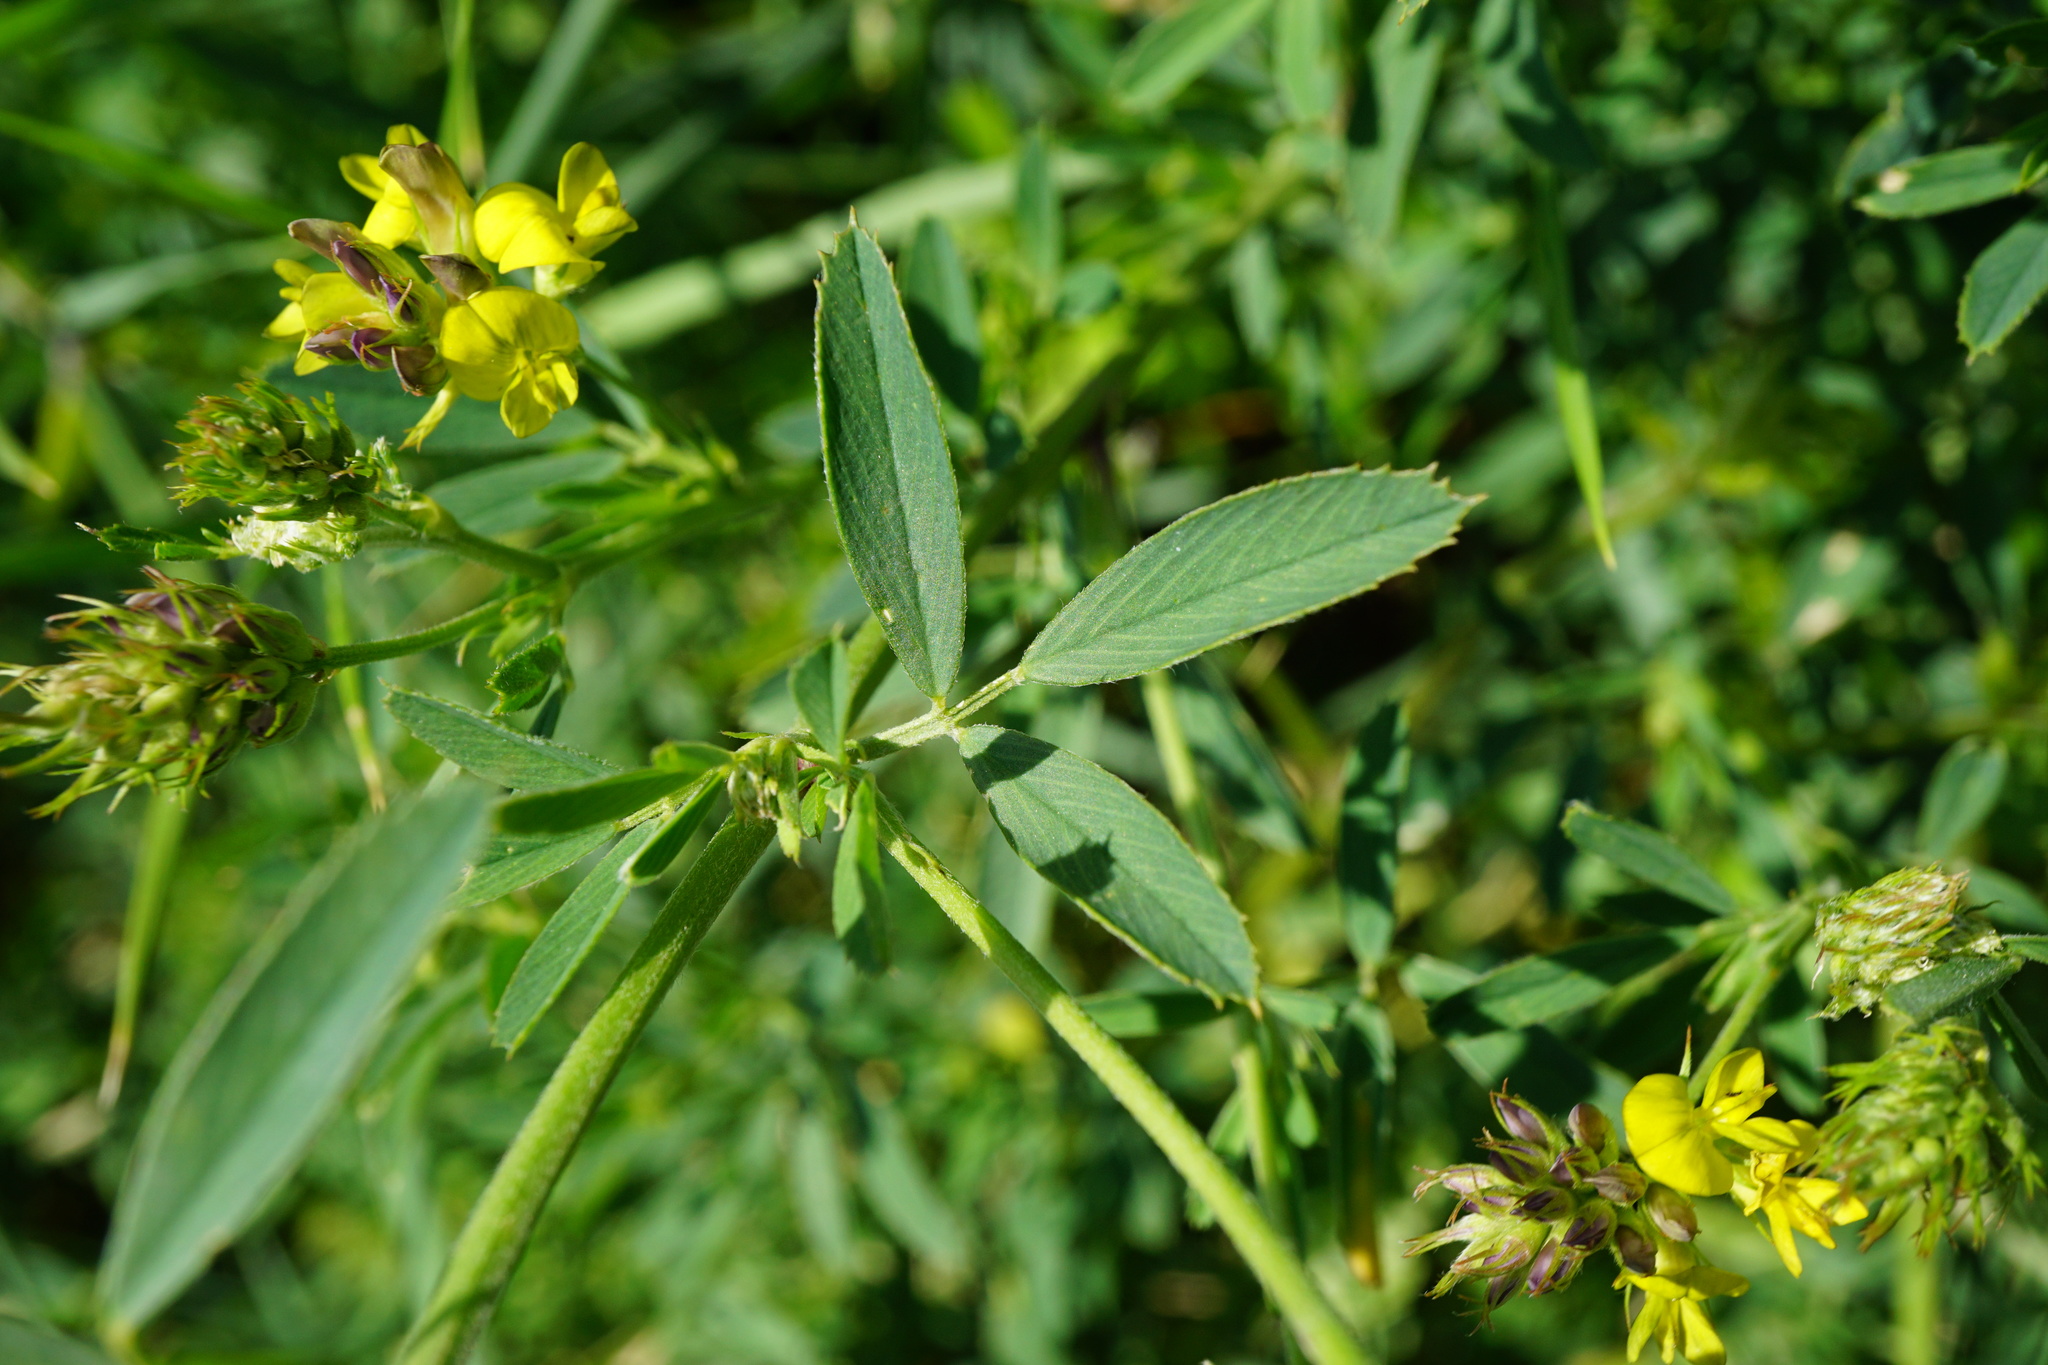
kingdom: Plantae
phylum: Tracheophyta
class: Magnoliopsida
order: Fabales
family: Fabaceae
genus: Medicago
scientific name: Medicago varia
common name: Sand lucerne
